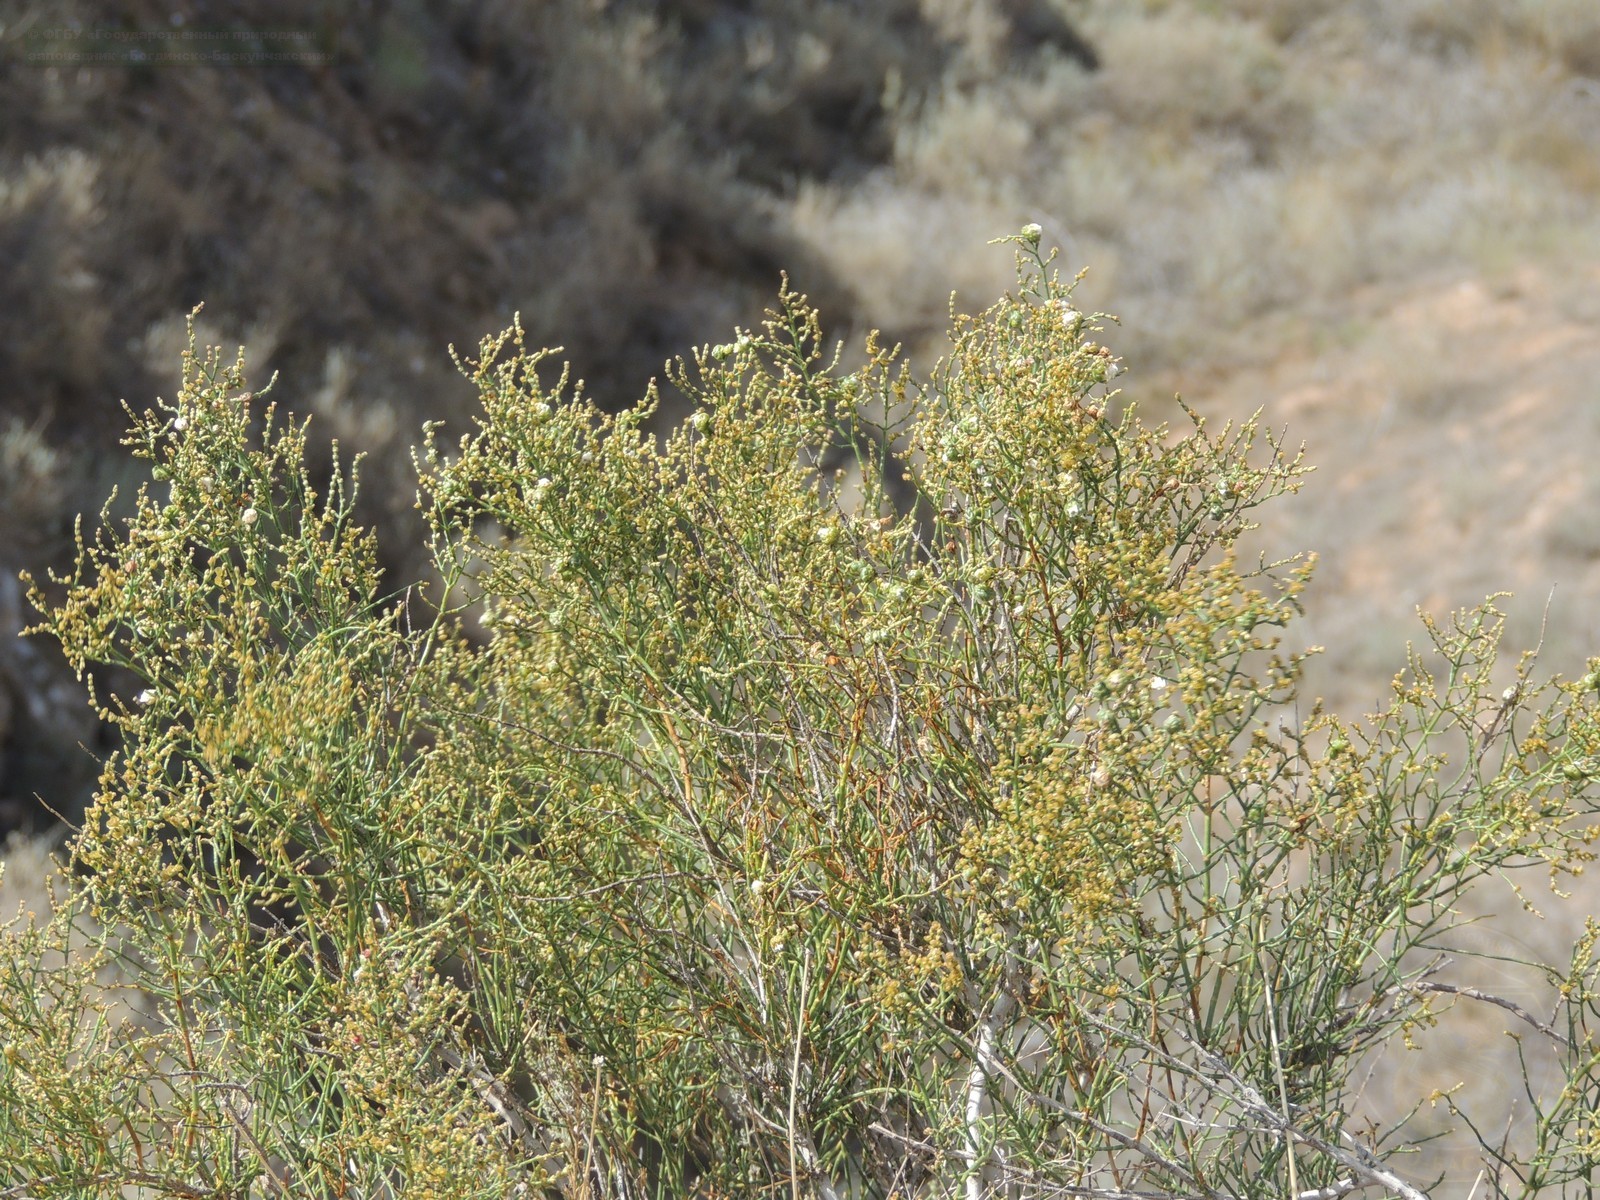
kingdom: Plantae
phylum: Tracheophyta
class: Magnoliopsida
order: Caryophyllales
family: Amaranthaceae
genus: Anabasis
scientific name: Anabasis aphylla
